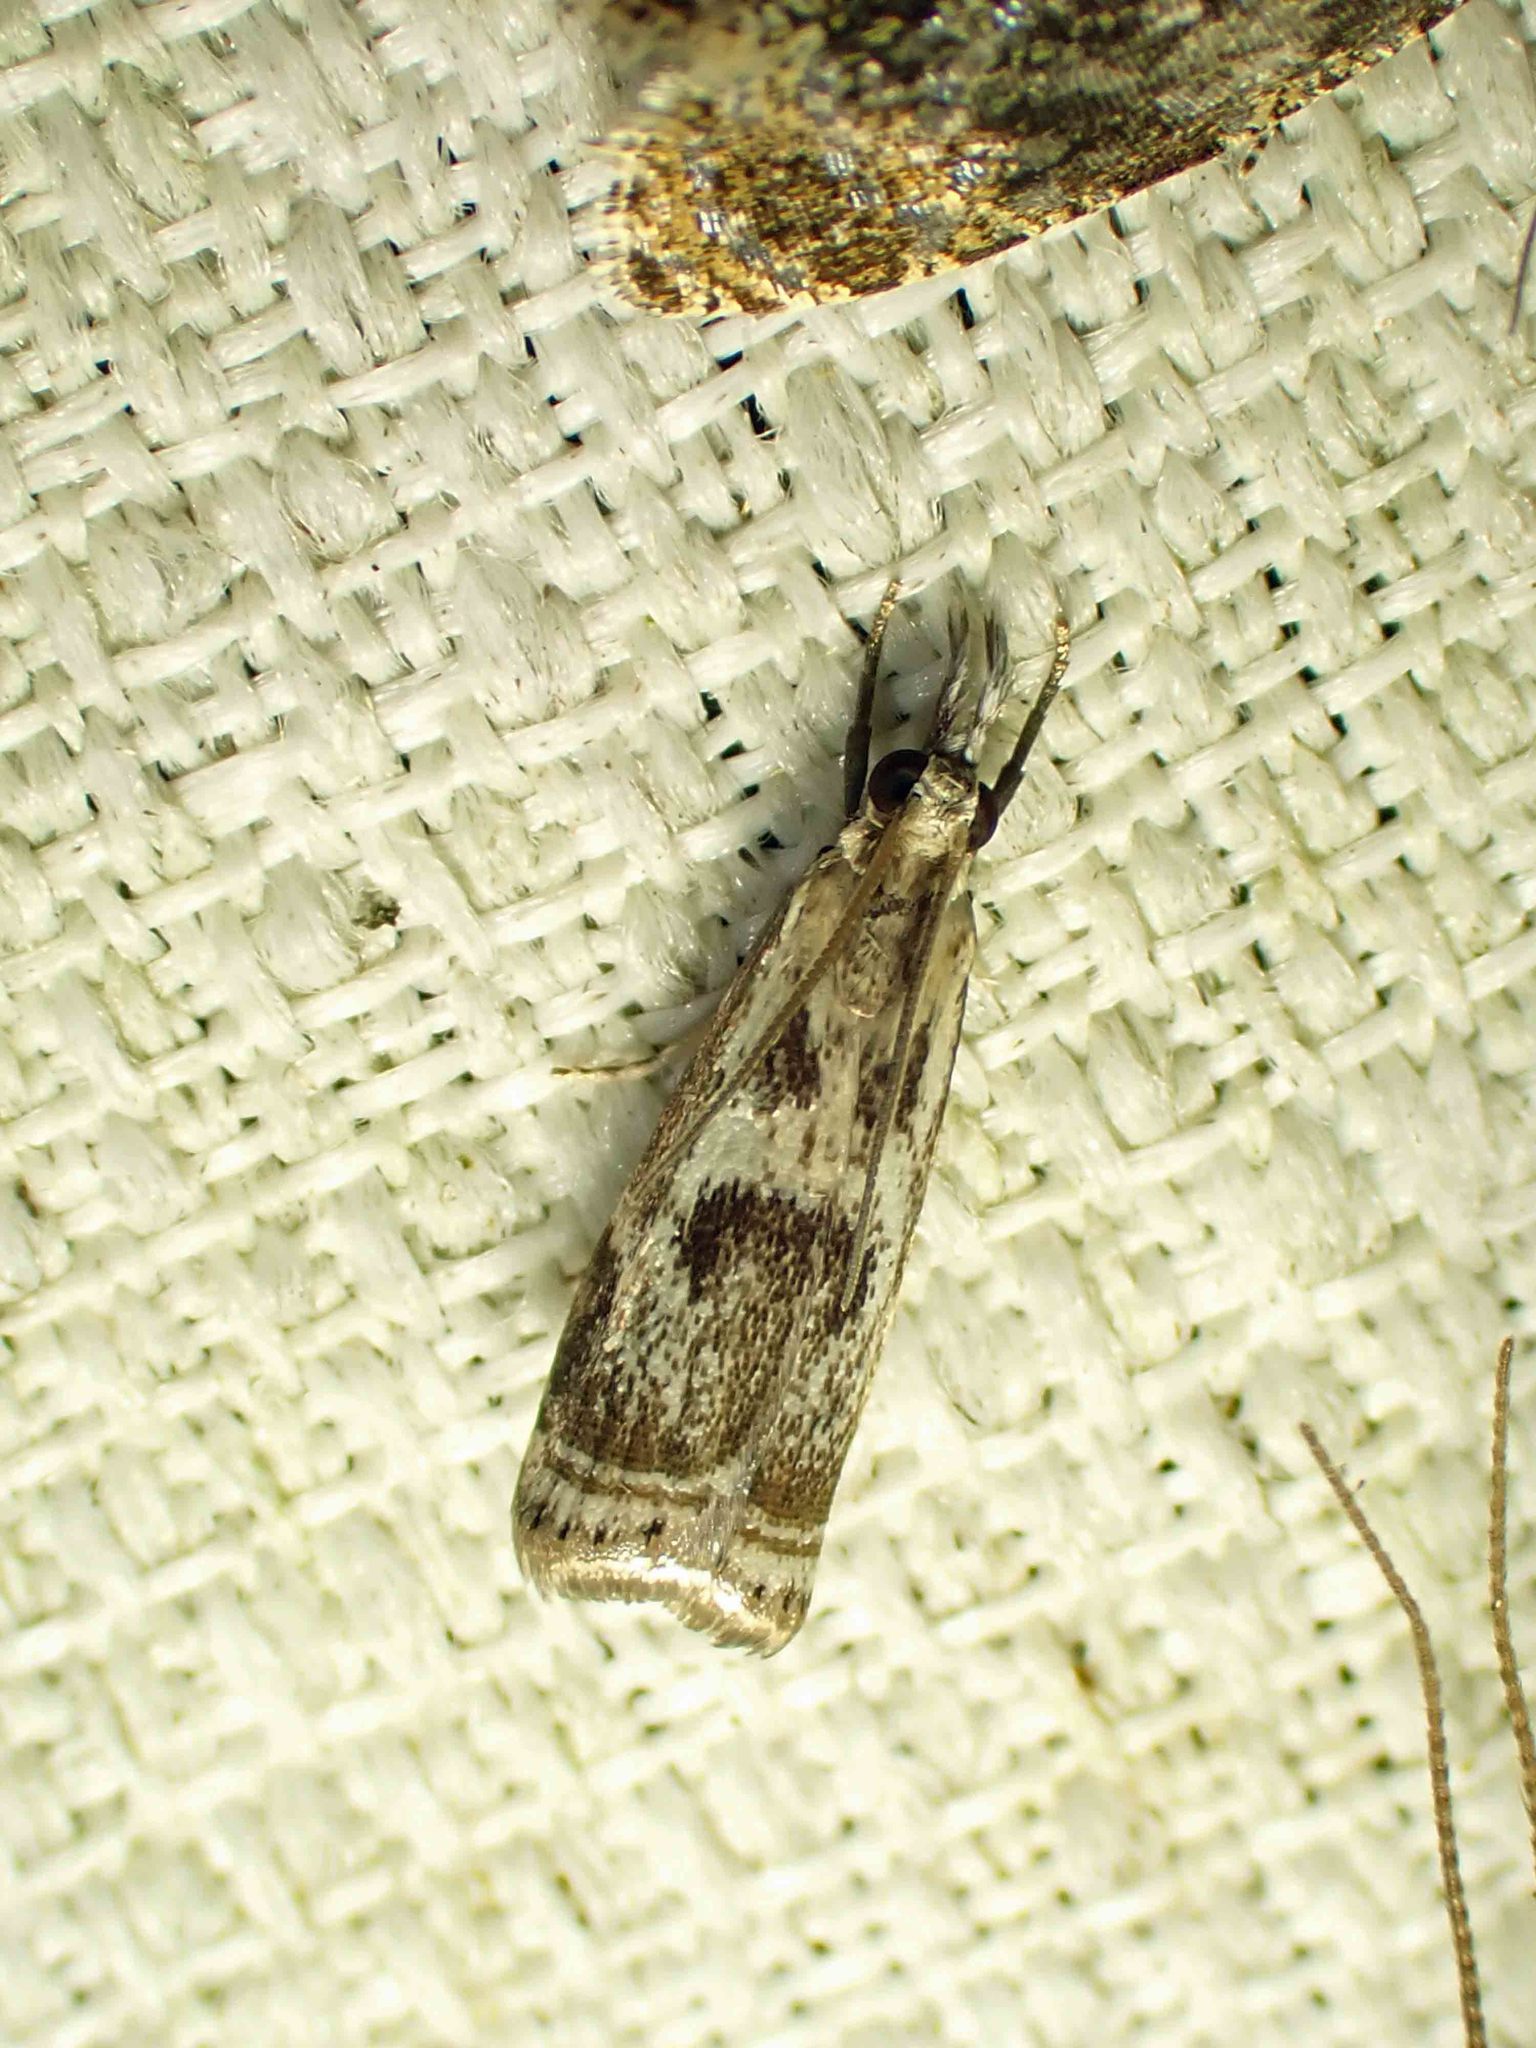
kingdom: Animalia
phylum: Arthropoda
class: Insecta
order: Lepidoptera
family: Crambidae
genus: Microcrambus
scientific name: Microcrambus elegans
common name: Elegant grass-veneer
